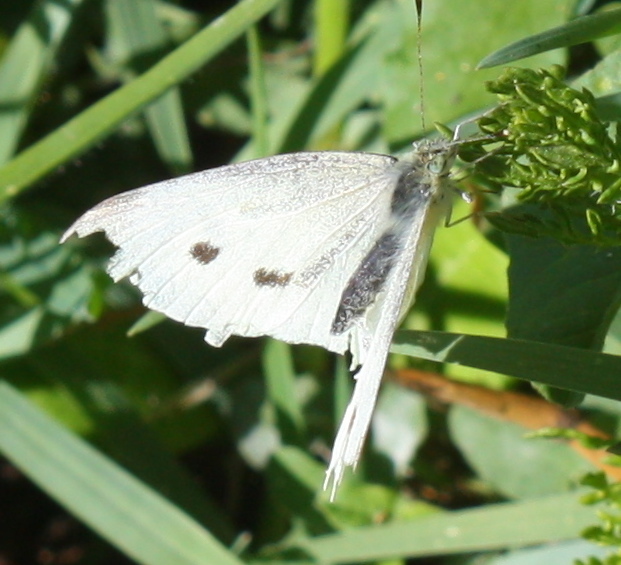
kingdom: Animalia
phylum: Arthropoda
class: Insecta
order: Lepidoptera
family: Pieridae
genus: Pieris
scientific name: Pieris rapae
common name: Small white
